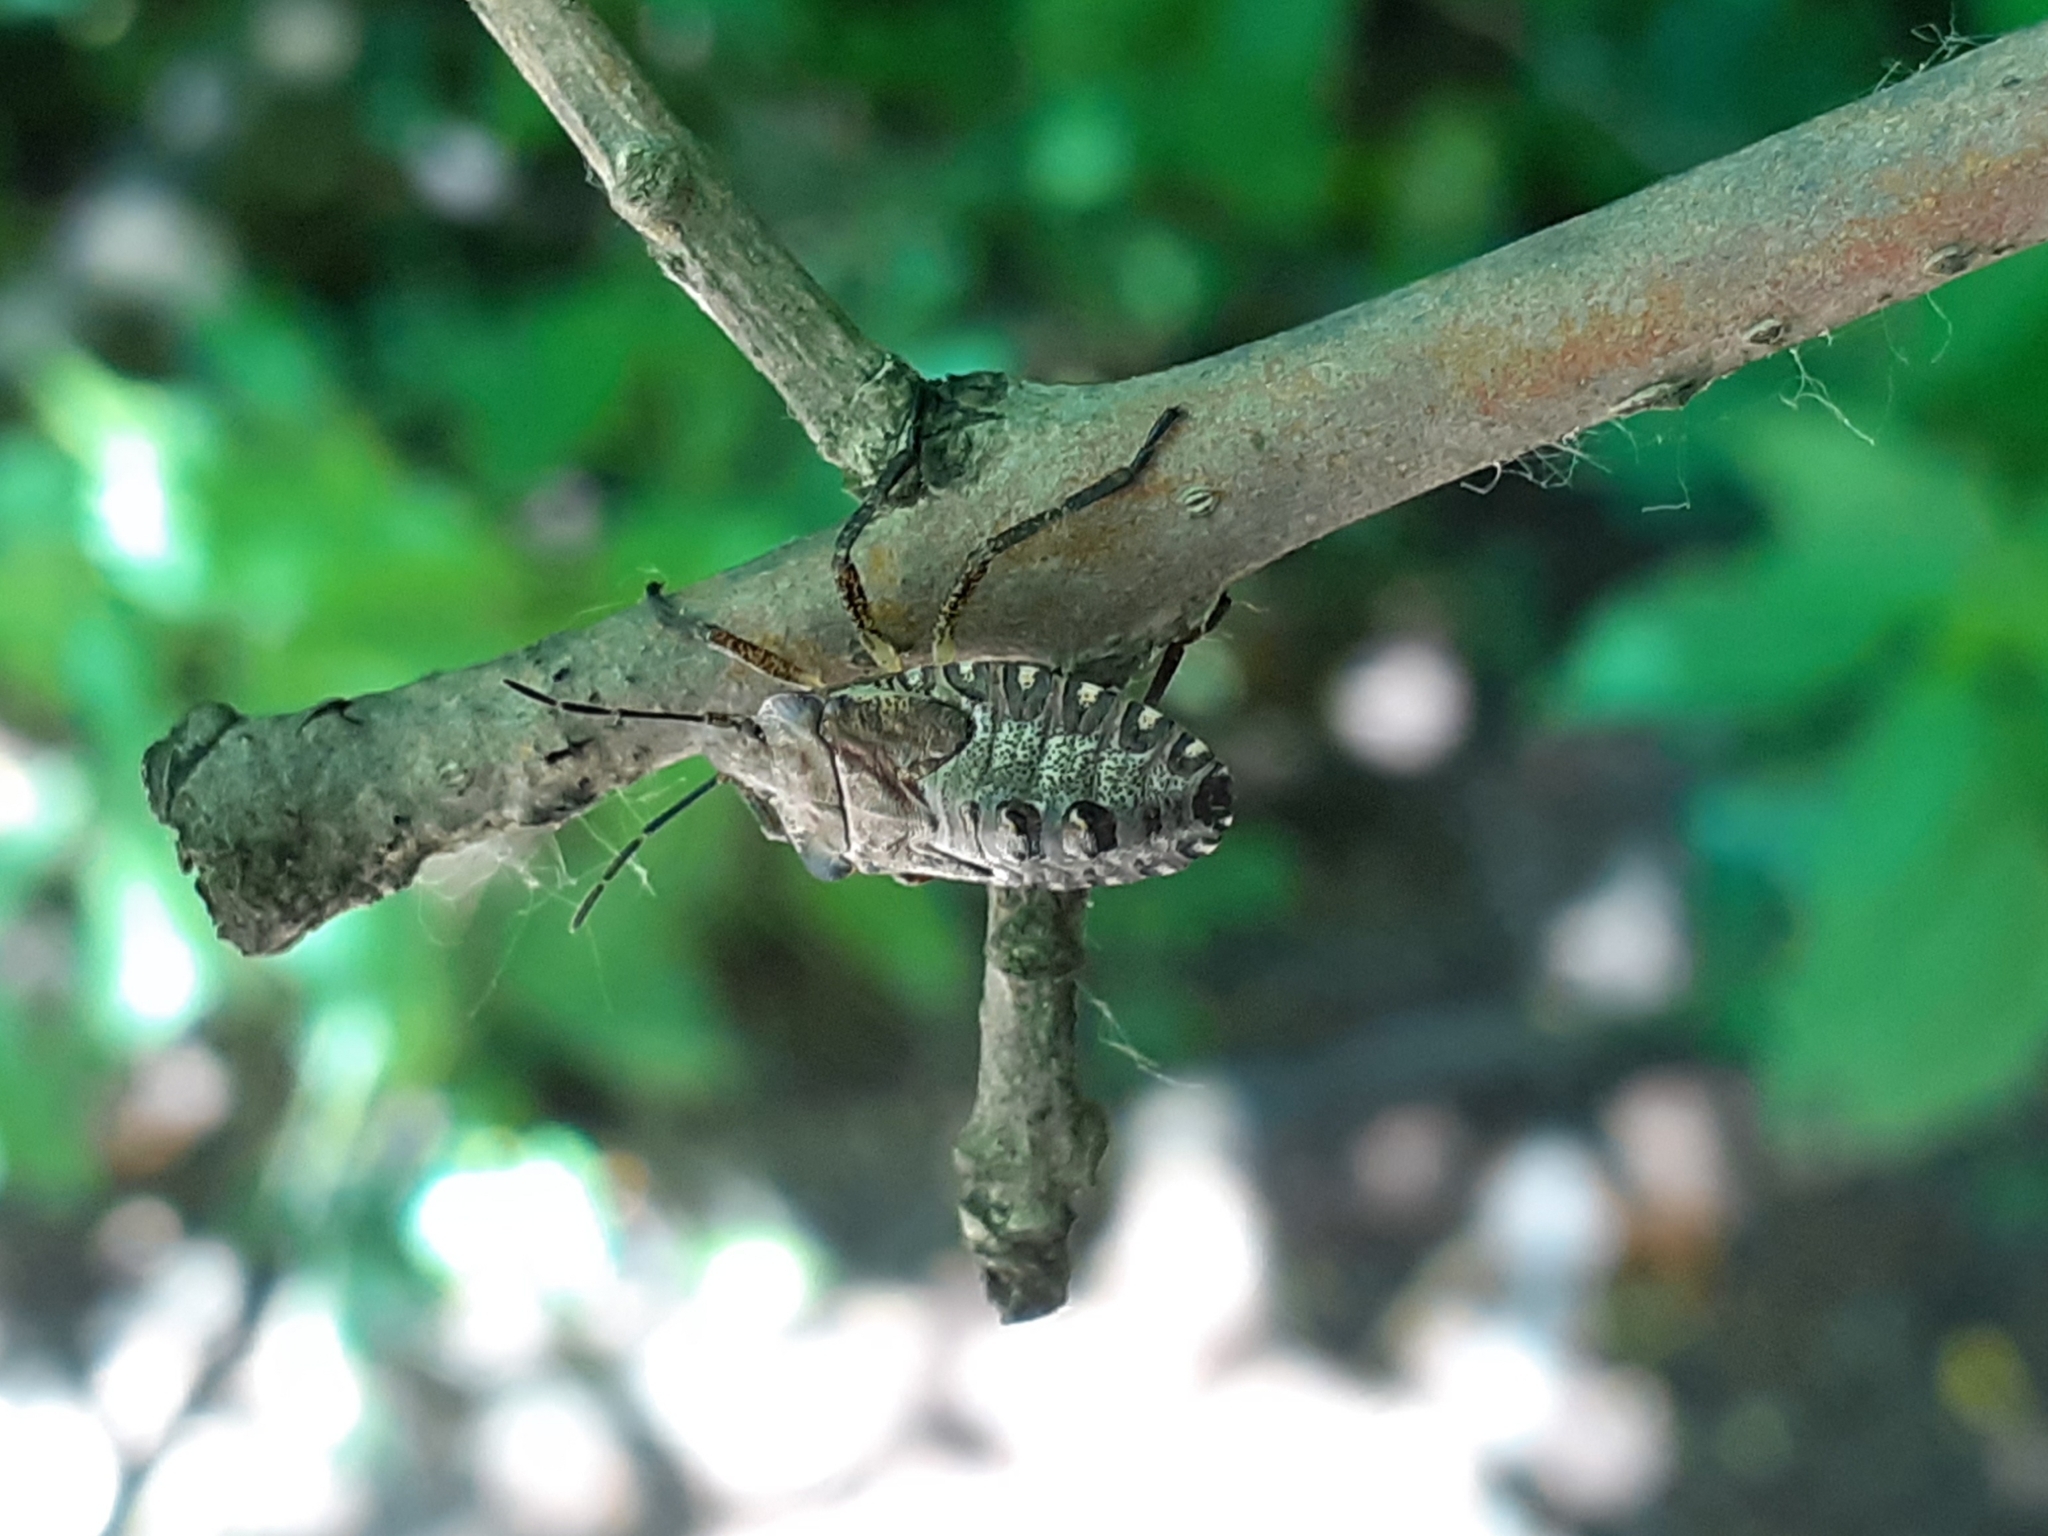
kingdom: Animalia
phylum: Arthropoda
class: Insecta
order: Hemiptera
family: Pentatomidae
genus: Pentatoma
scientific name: Pentatoma rufipes
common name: Forest bug
